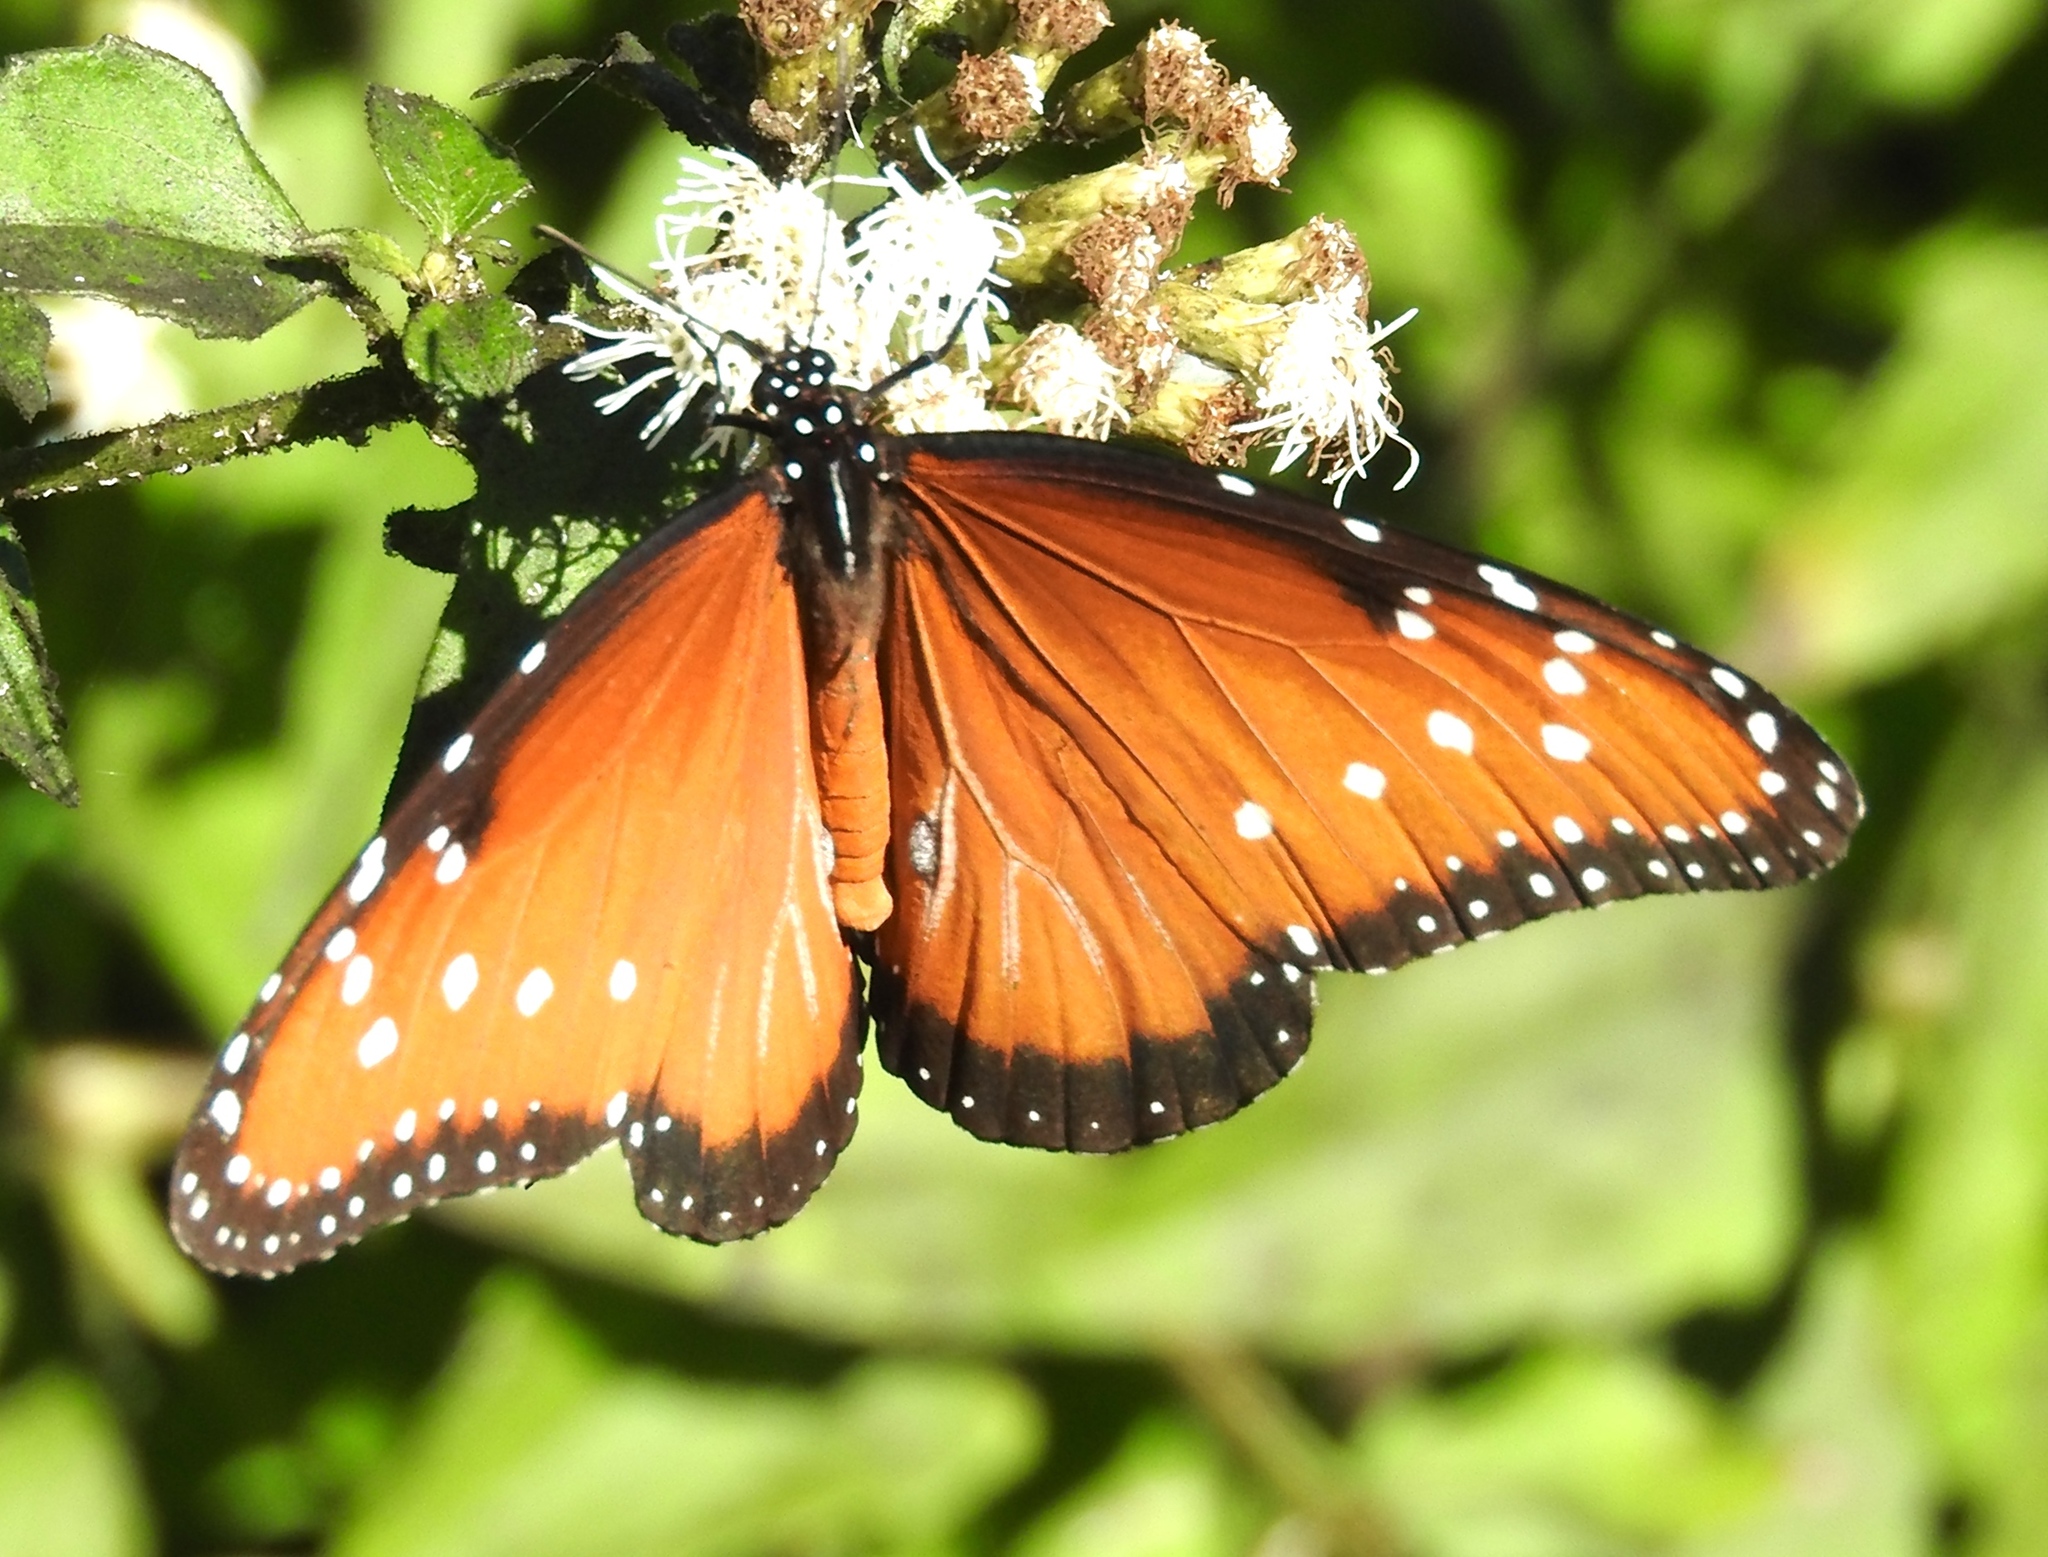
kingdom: Animalia
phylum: Arthropoda
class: Insecta
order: Lepidoptera
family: Nymphalidae
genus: Danaus
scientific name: Danaus gilippus
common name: Queen
